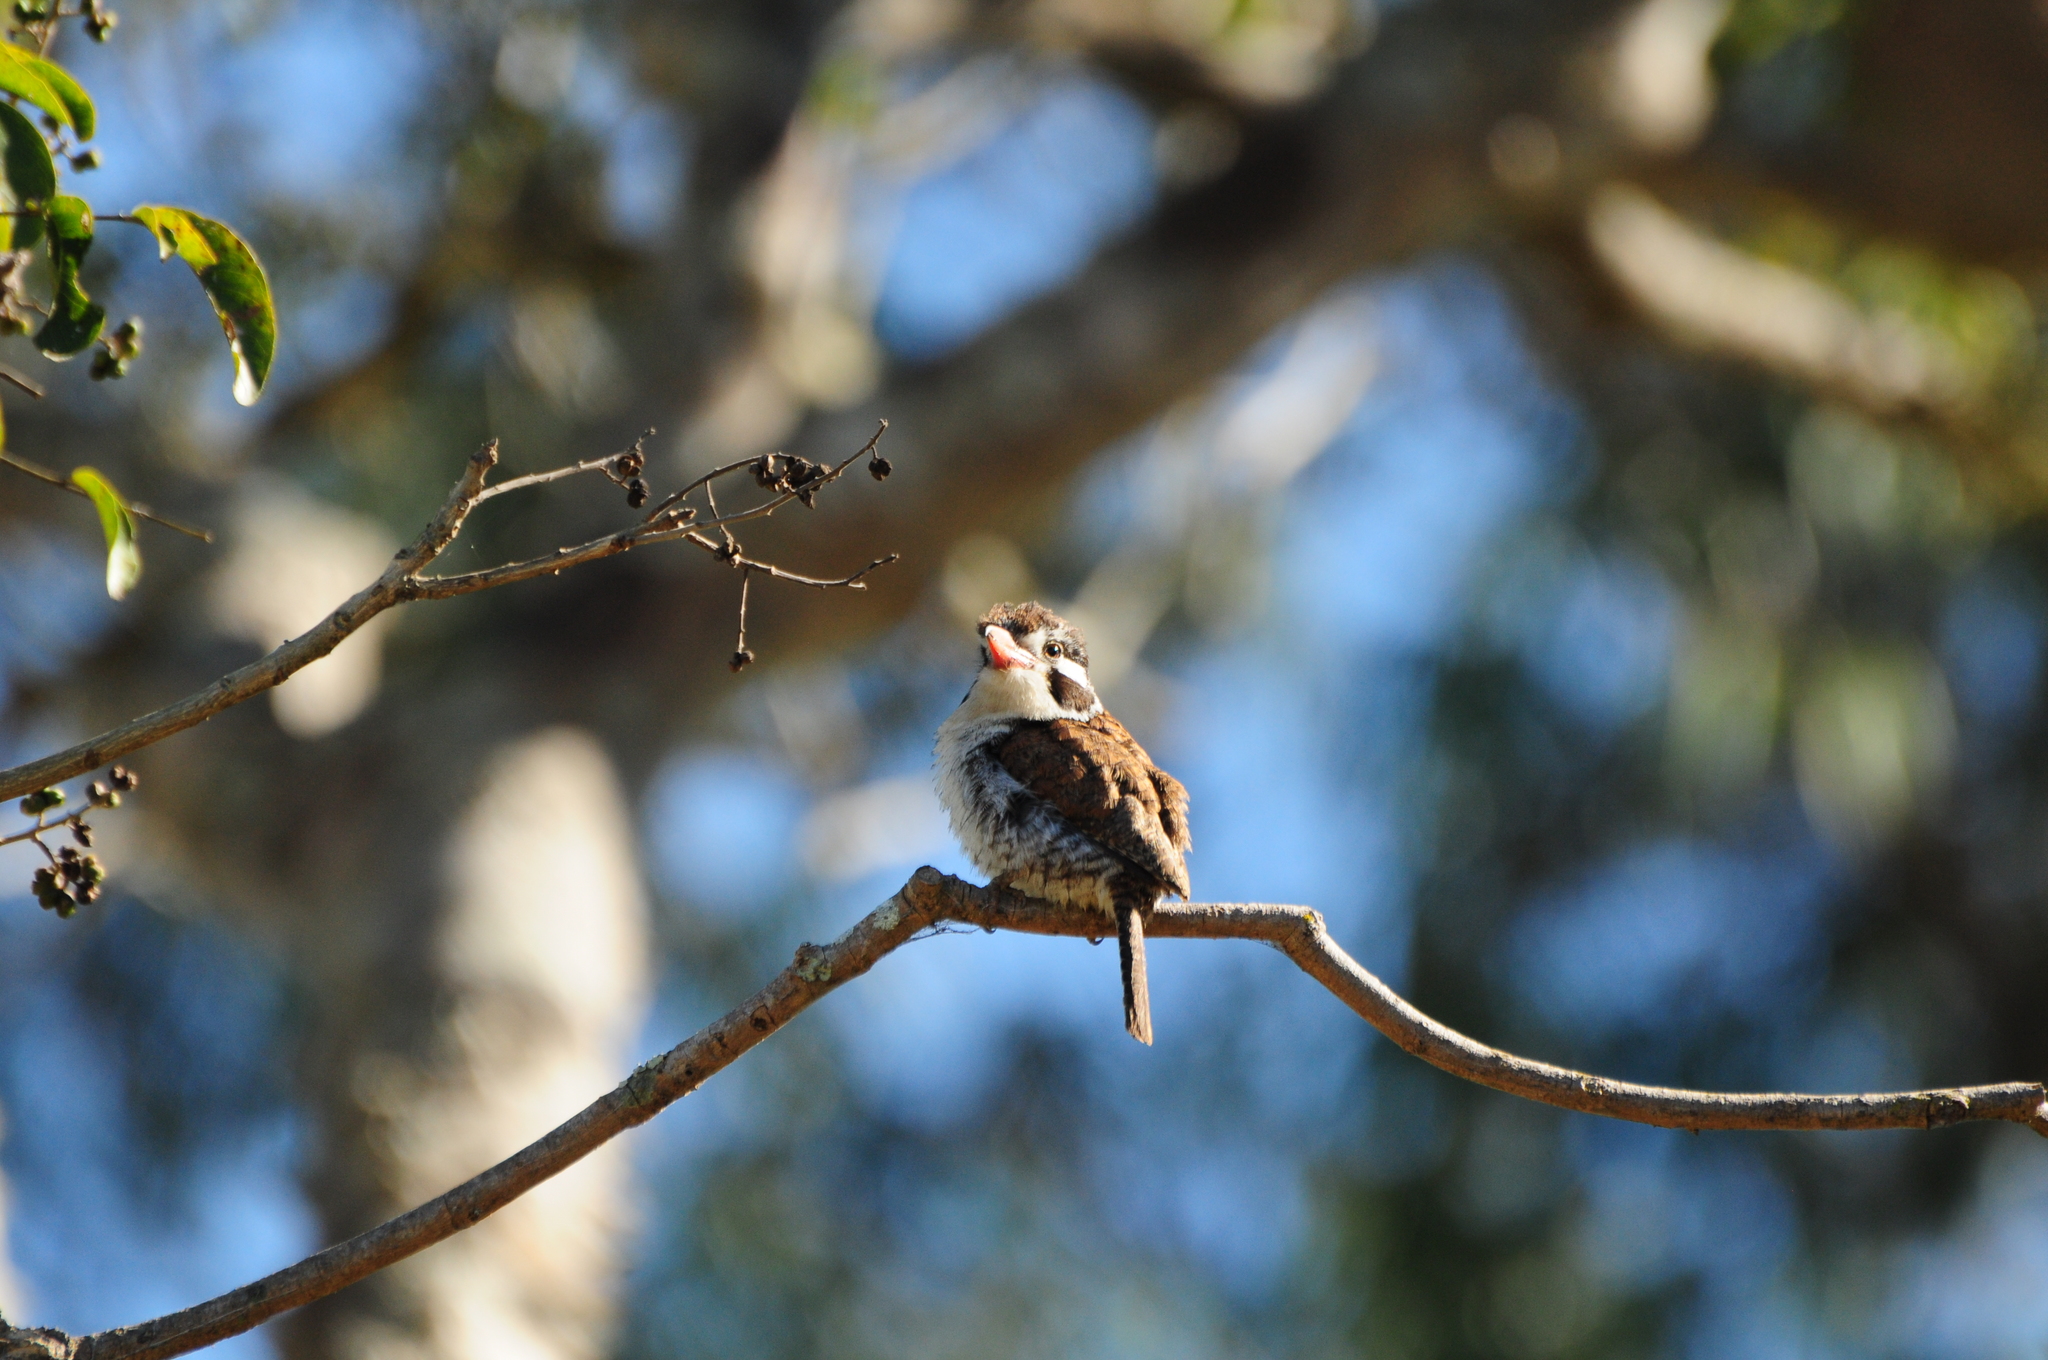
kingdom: Animalia
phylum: Chordata
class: Aves
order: Piciformes
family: Bucconidae
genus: Nystalus
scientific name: Nystalus chacuru
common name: White-eared puffbird
